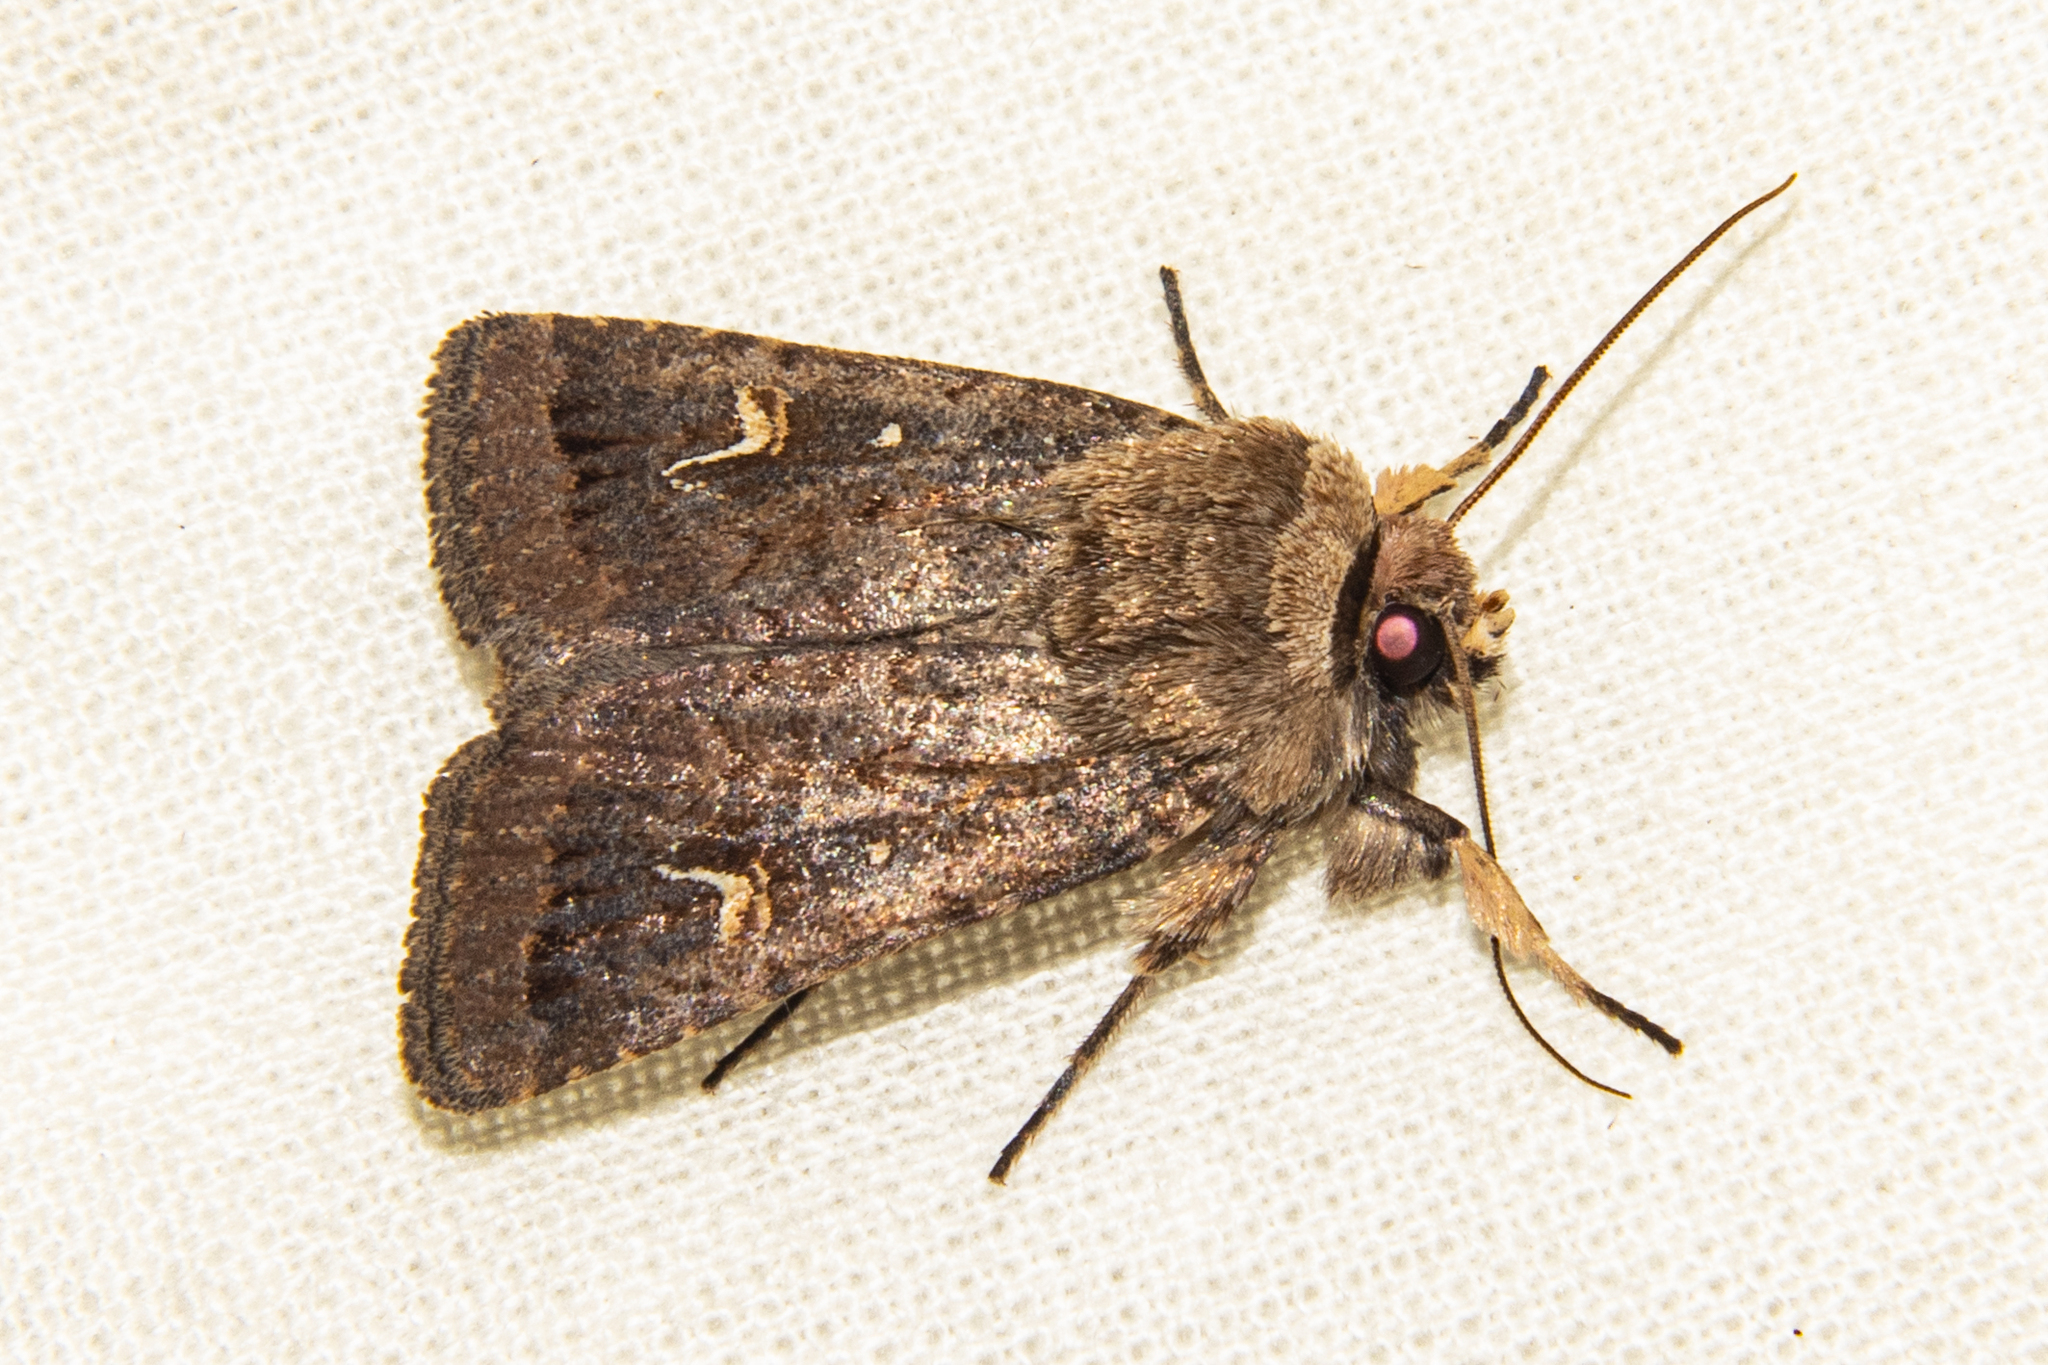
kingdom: Animalia
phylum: Arthropoda
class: Insecta
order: Lepidoptera
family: Noctuidae
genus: Proteuxoa
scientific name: Proteuxoa tetronycha
